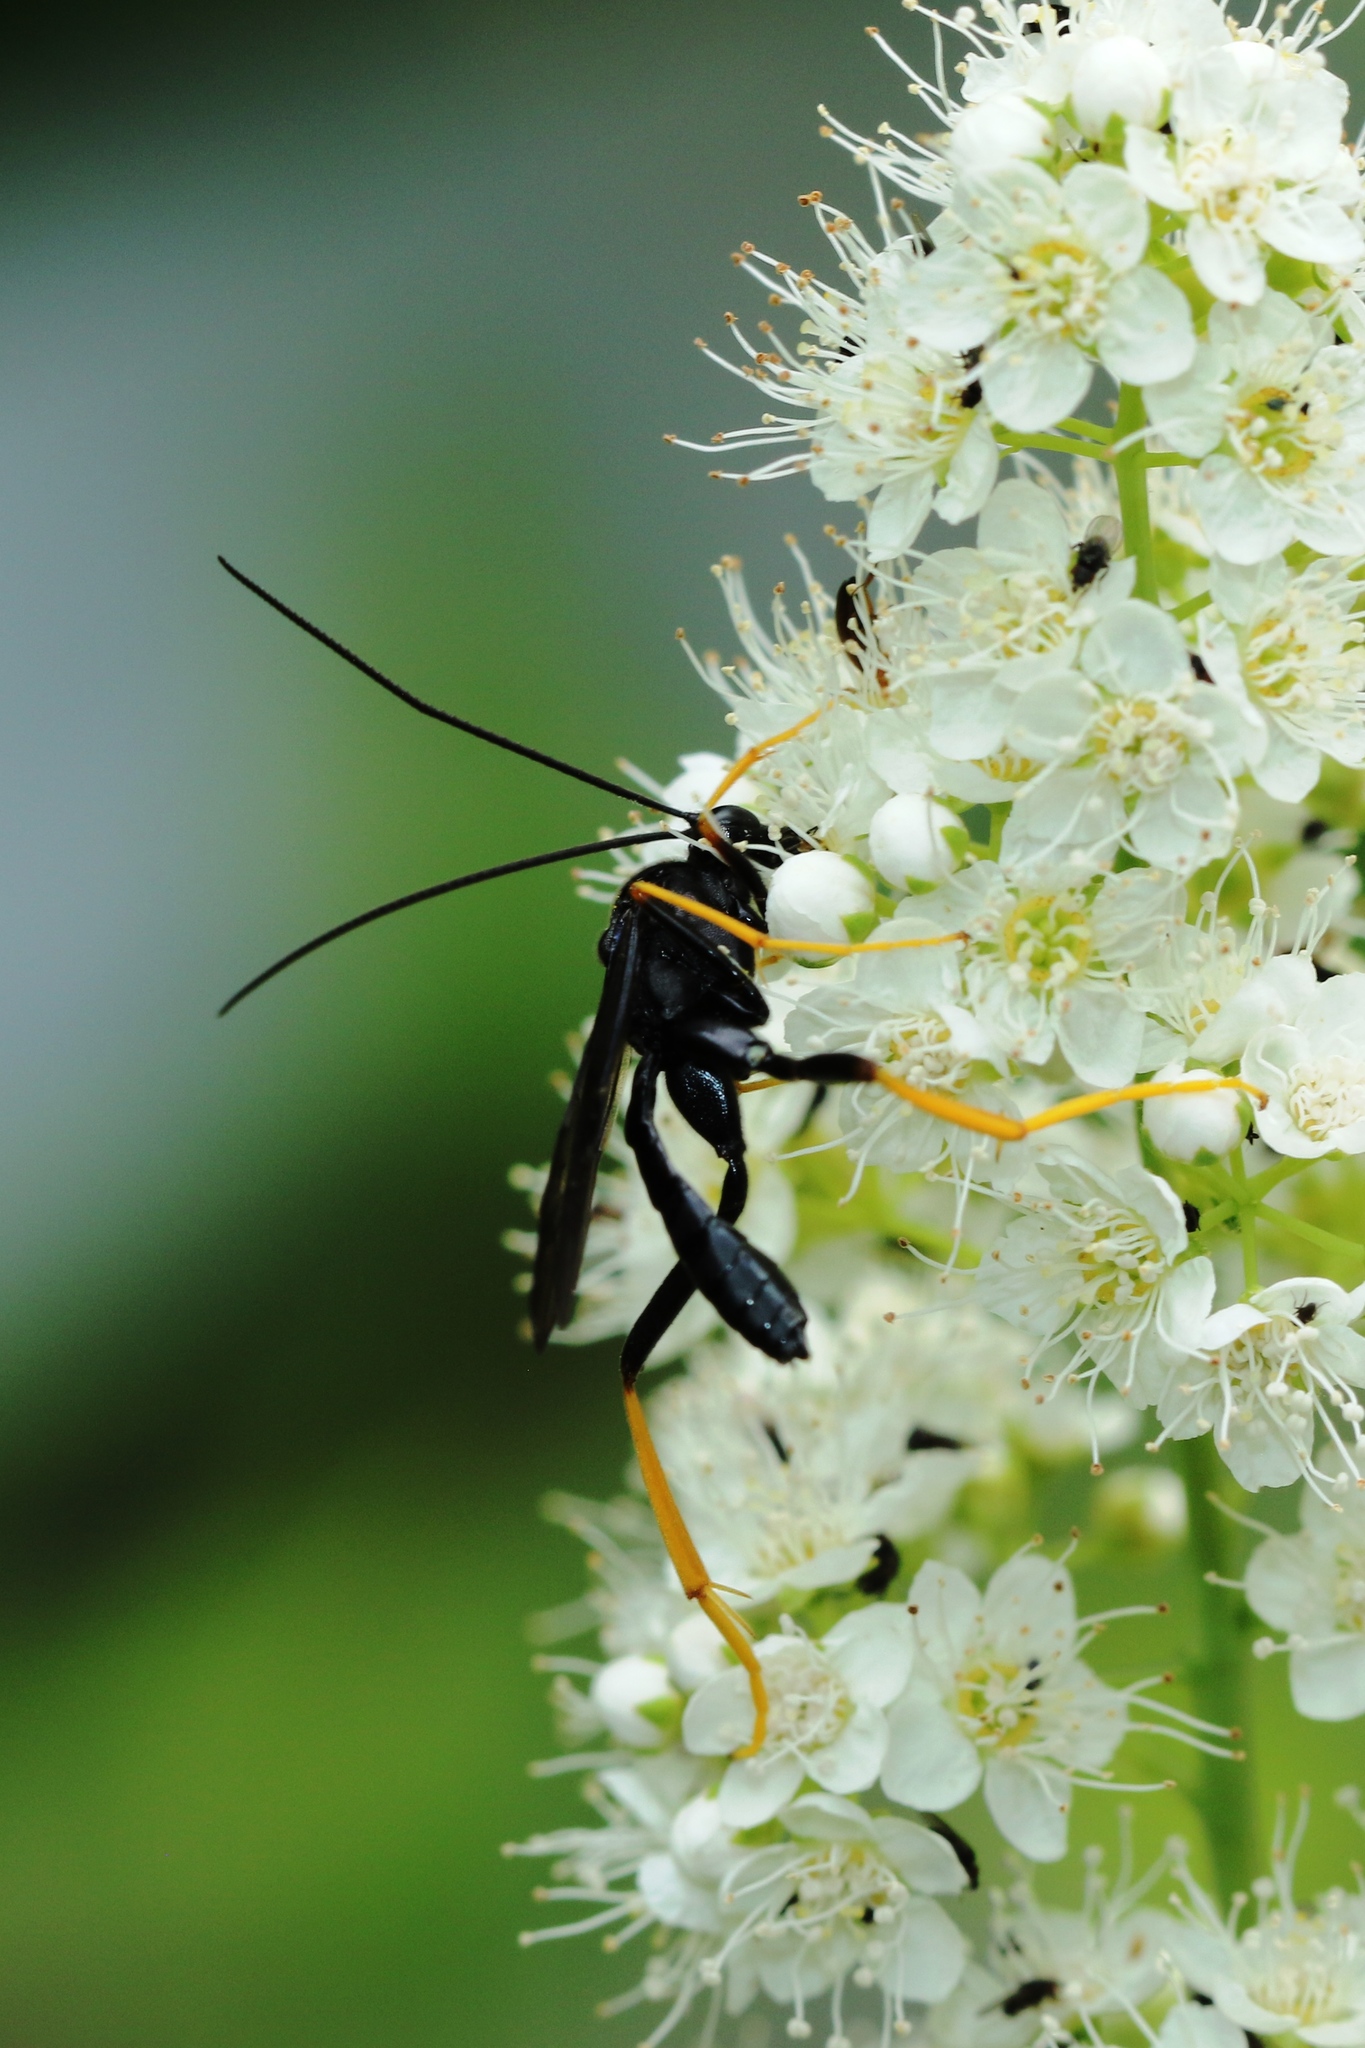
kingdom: Animalia
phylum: Arthropoda
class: Insecta
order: Hymenoptera
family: Ichneumonidae
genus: Exetastes
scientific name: Exetastes suaveolens
